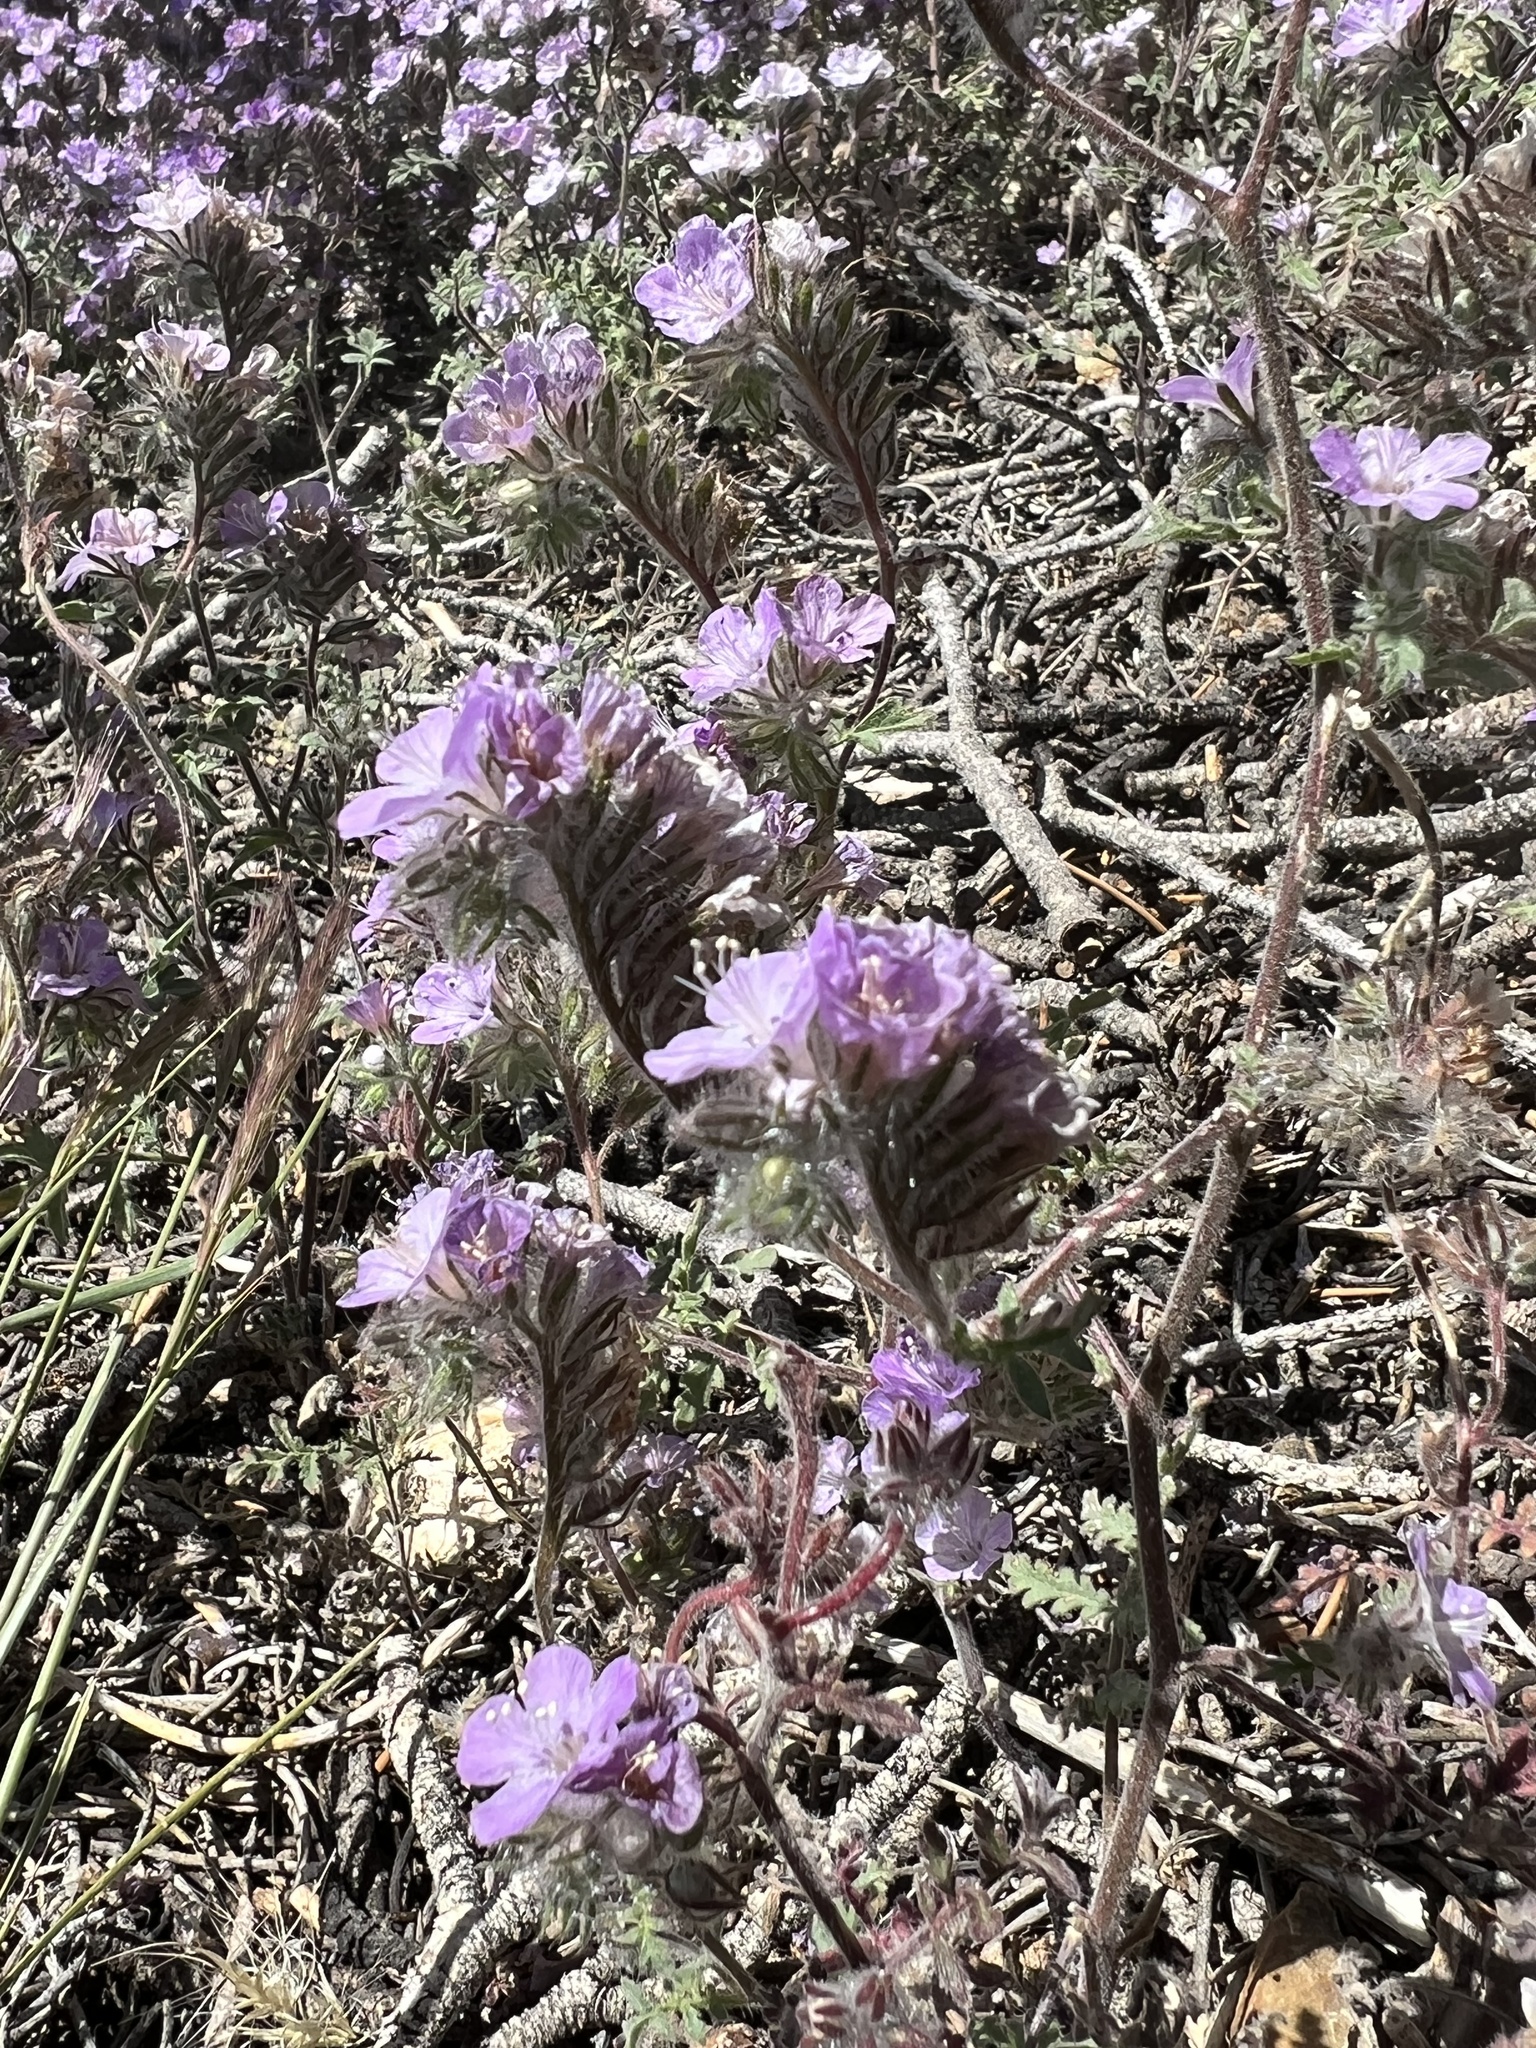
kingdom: Plantae
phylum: Tracheophyta
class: Magnoliopsida
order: Boraginales
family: Hydrophyllaceae
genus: Phacelia
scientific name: Phacelia vallis-mortae
